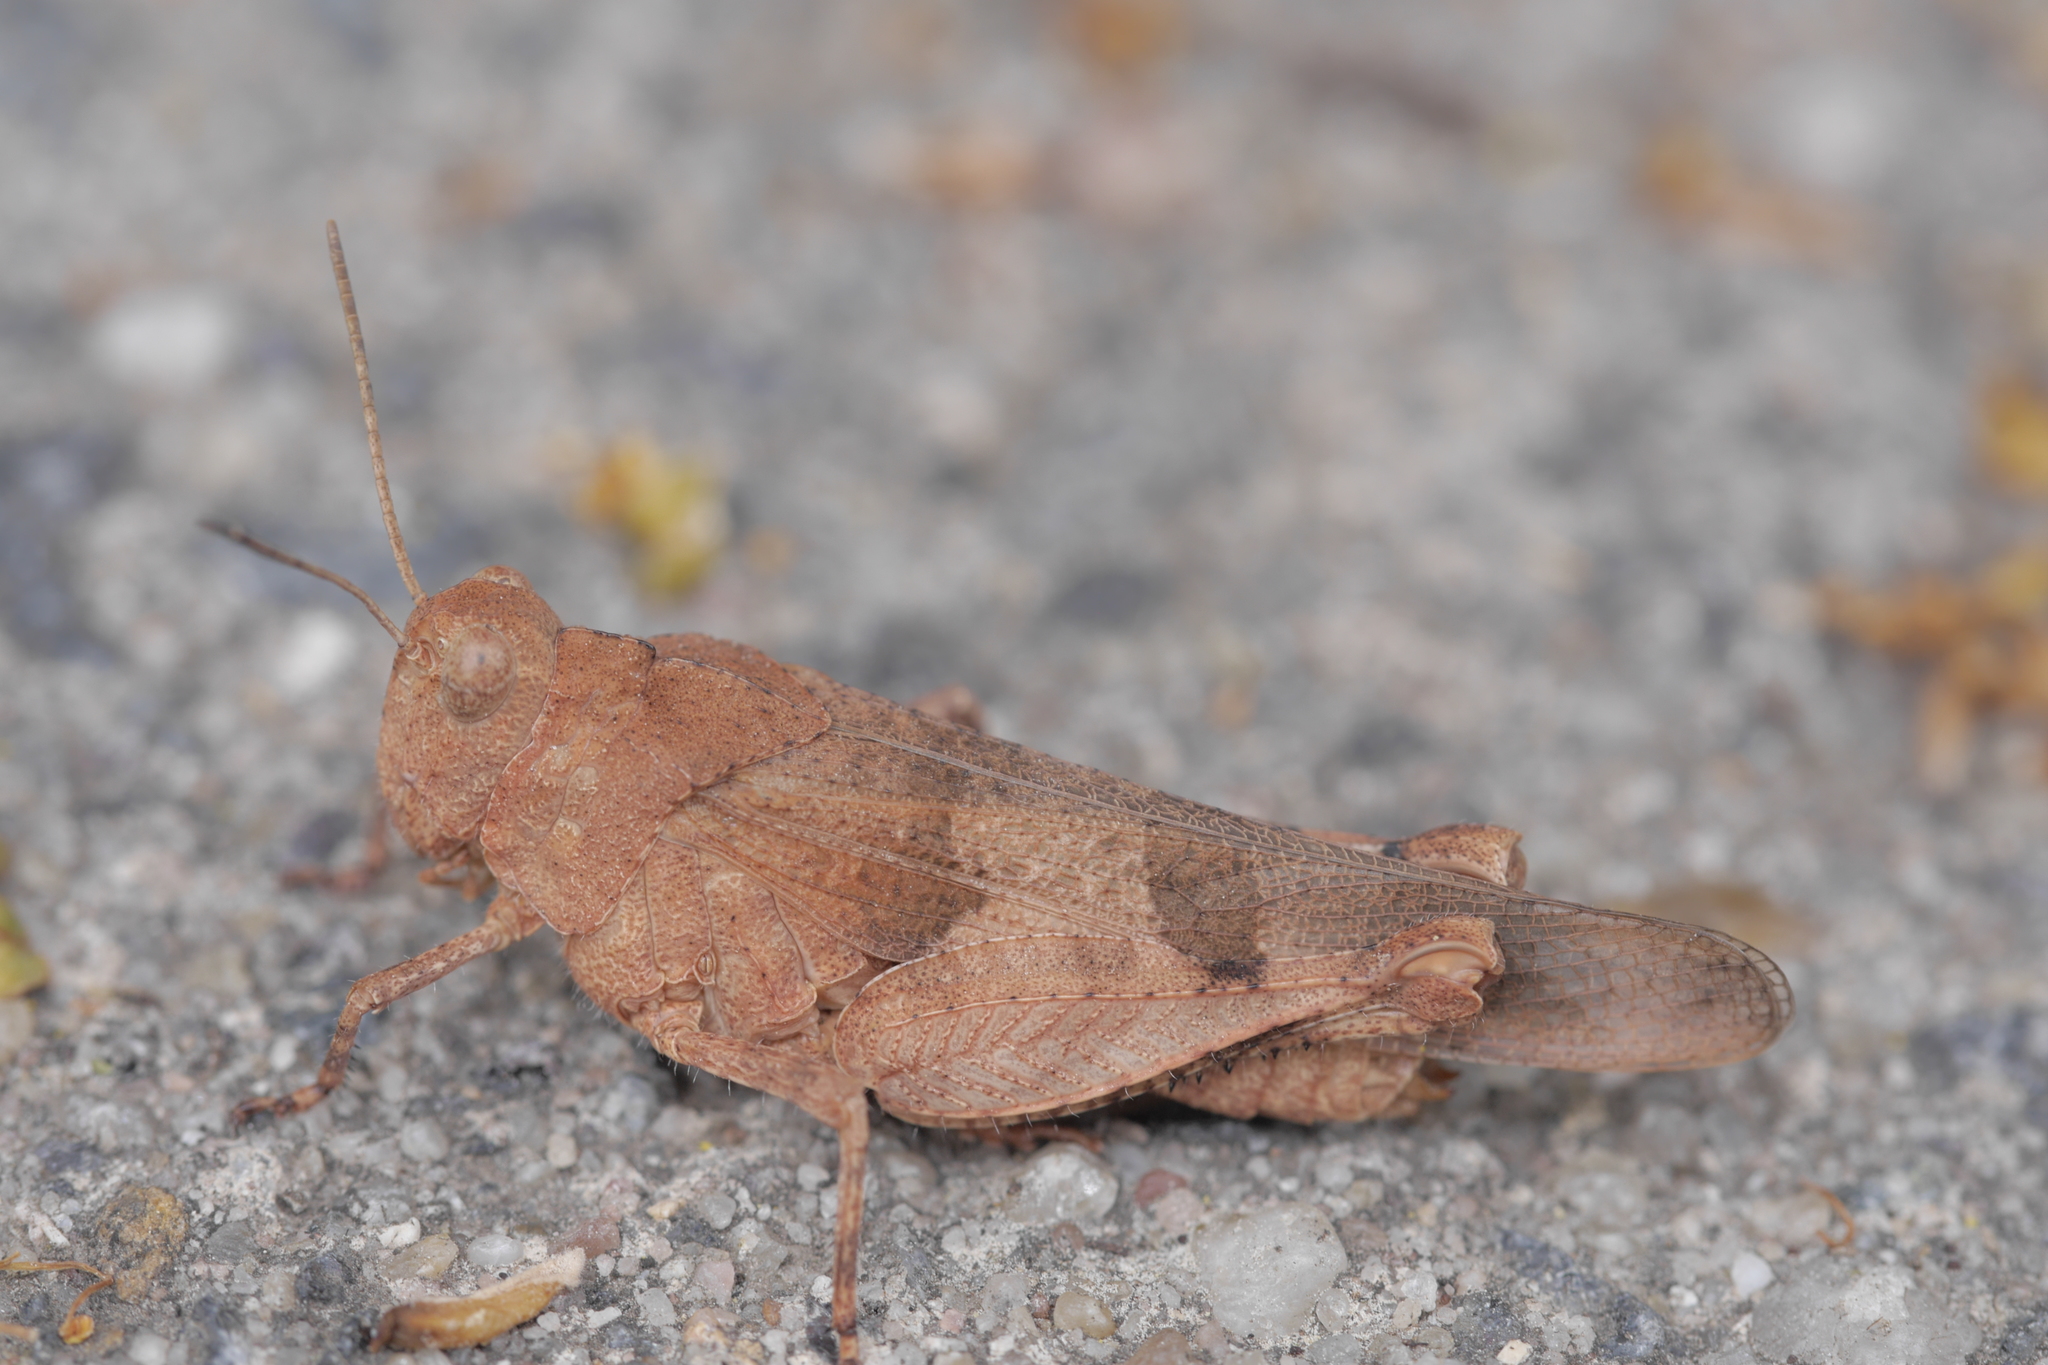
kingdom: Animalia
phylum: Arthropoda
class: Insecta
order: Orthoptera
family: Acrididae
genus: Oedipoda
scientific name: Oedipoda caerulescens
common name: Blue-winged grasshopper
